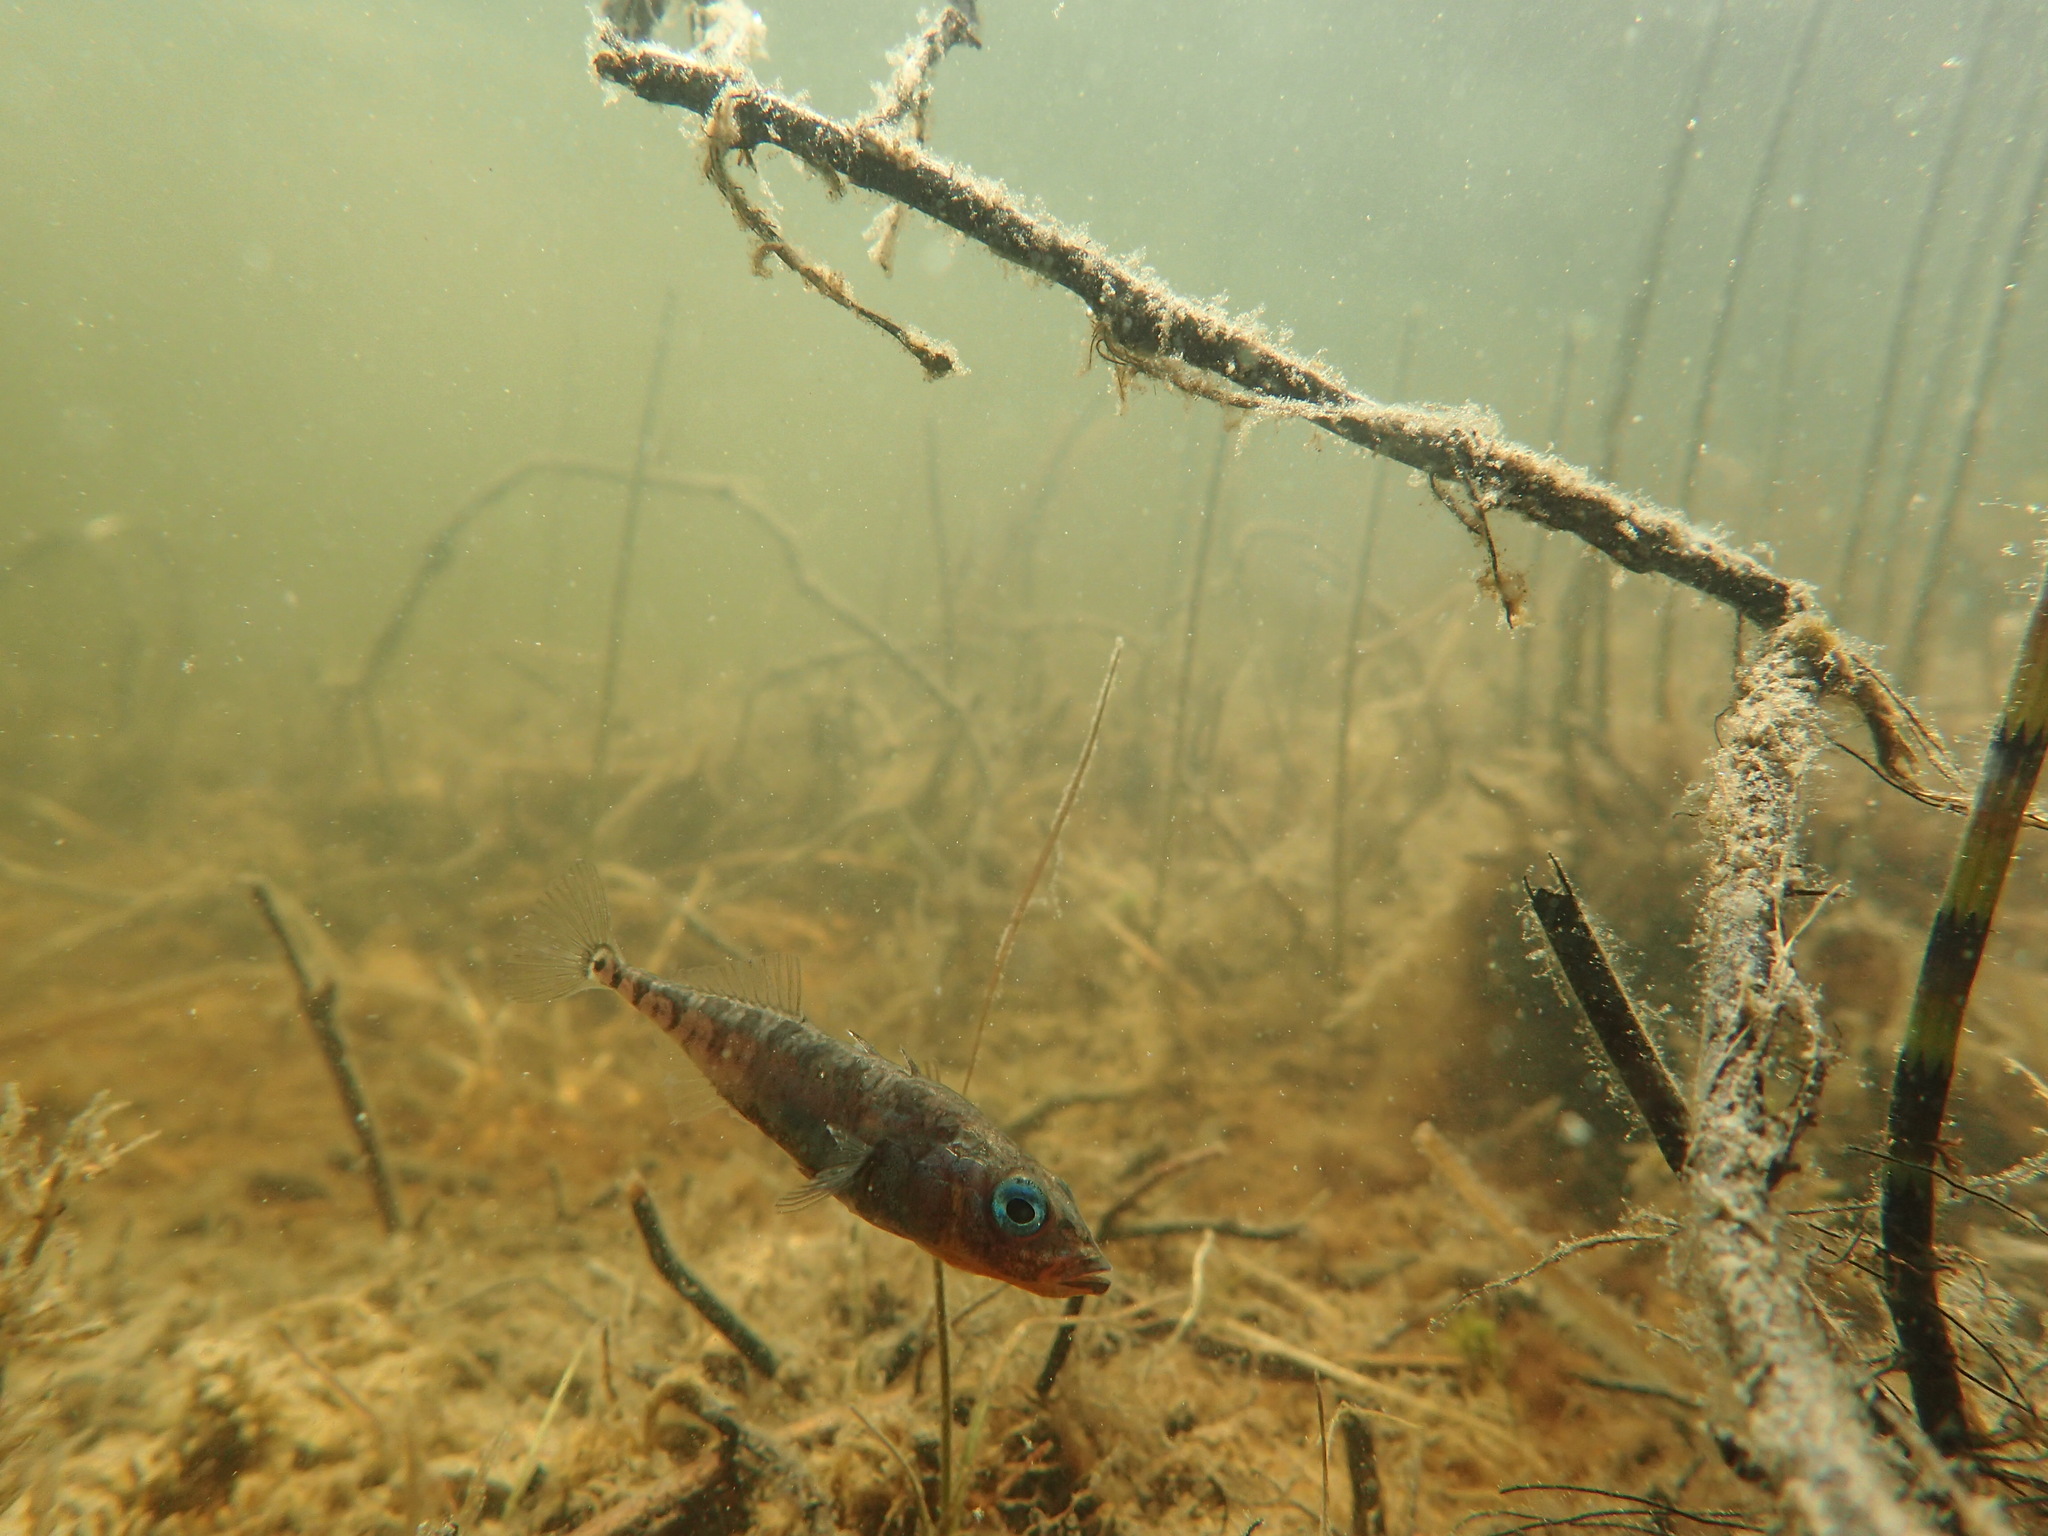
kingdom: Animalia
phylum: Chordata
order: Gasterosteiformes
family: Gasterosteidae
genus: Gasterosteus
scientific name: Gasterosteus aculeatus
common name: Three-spined stickleback
